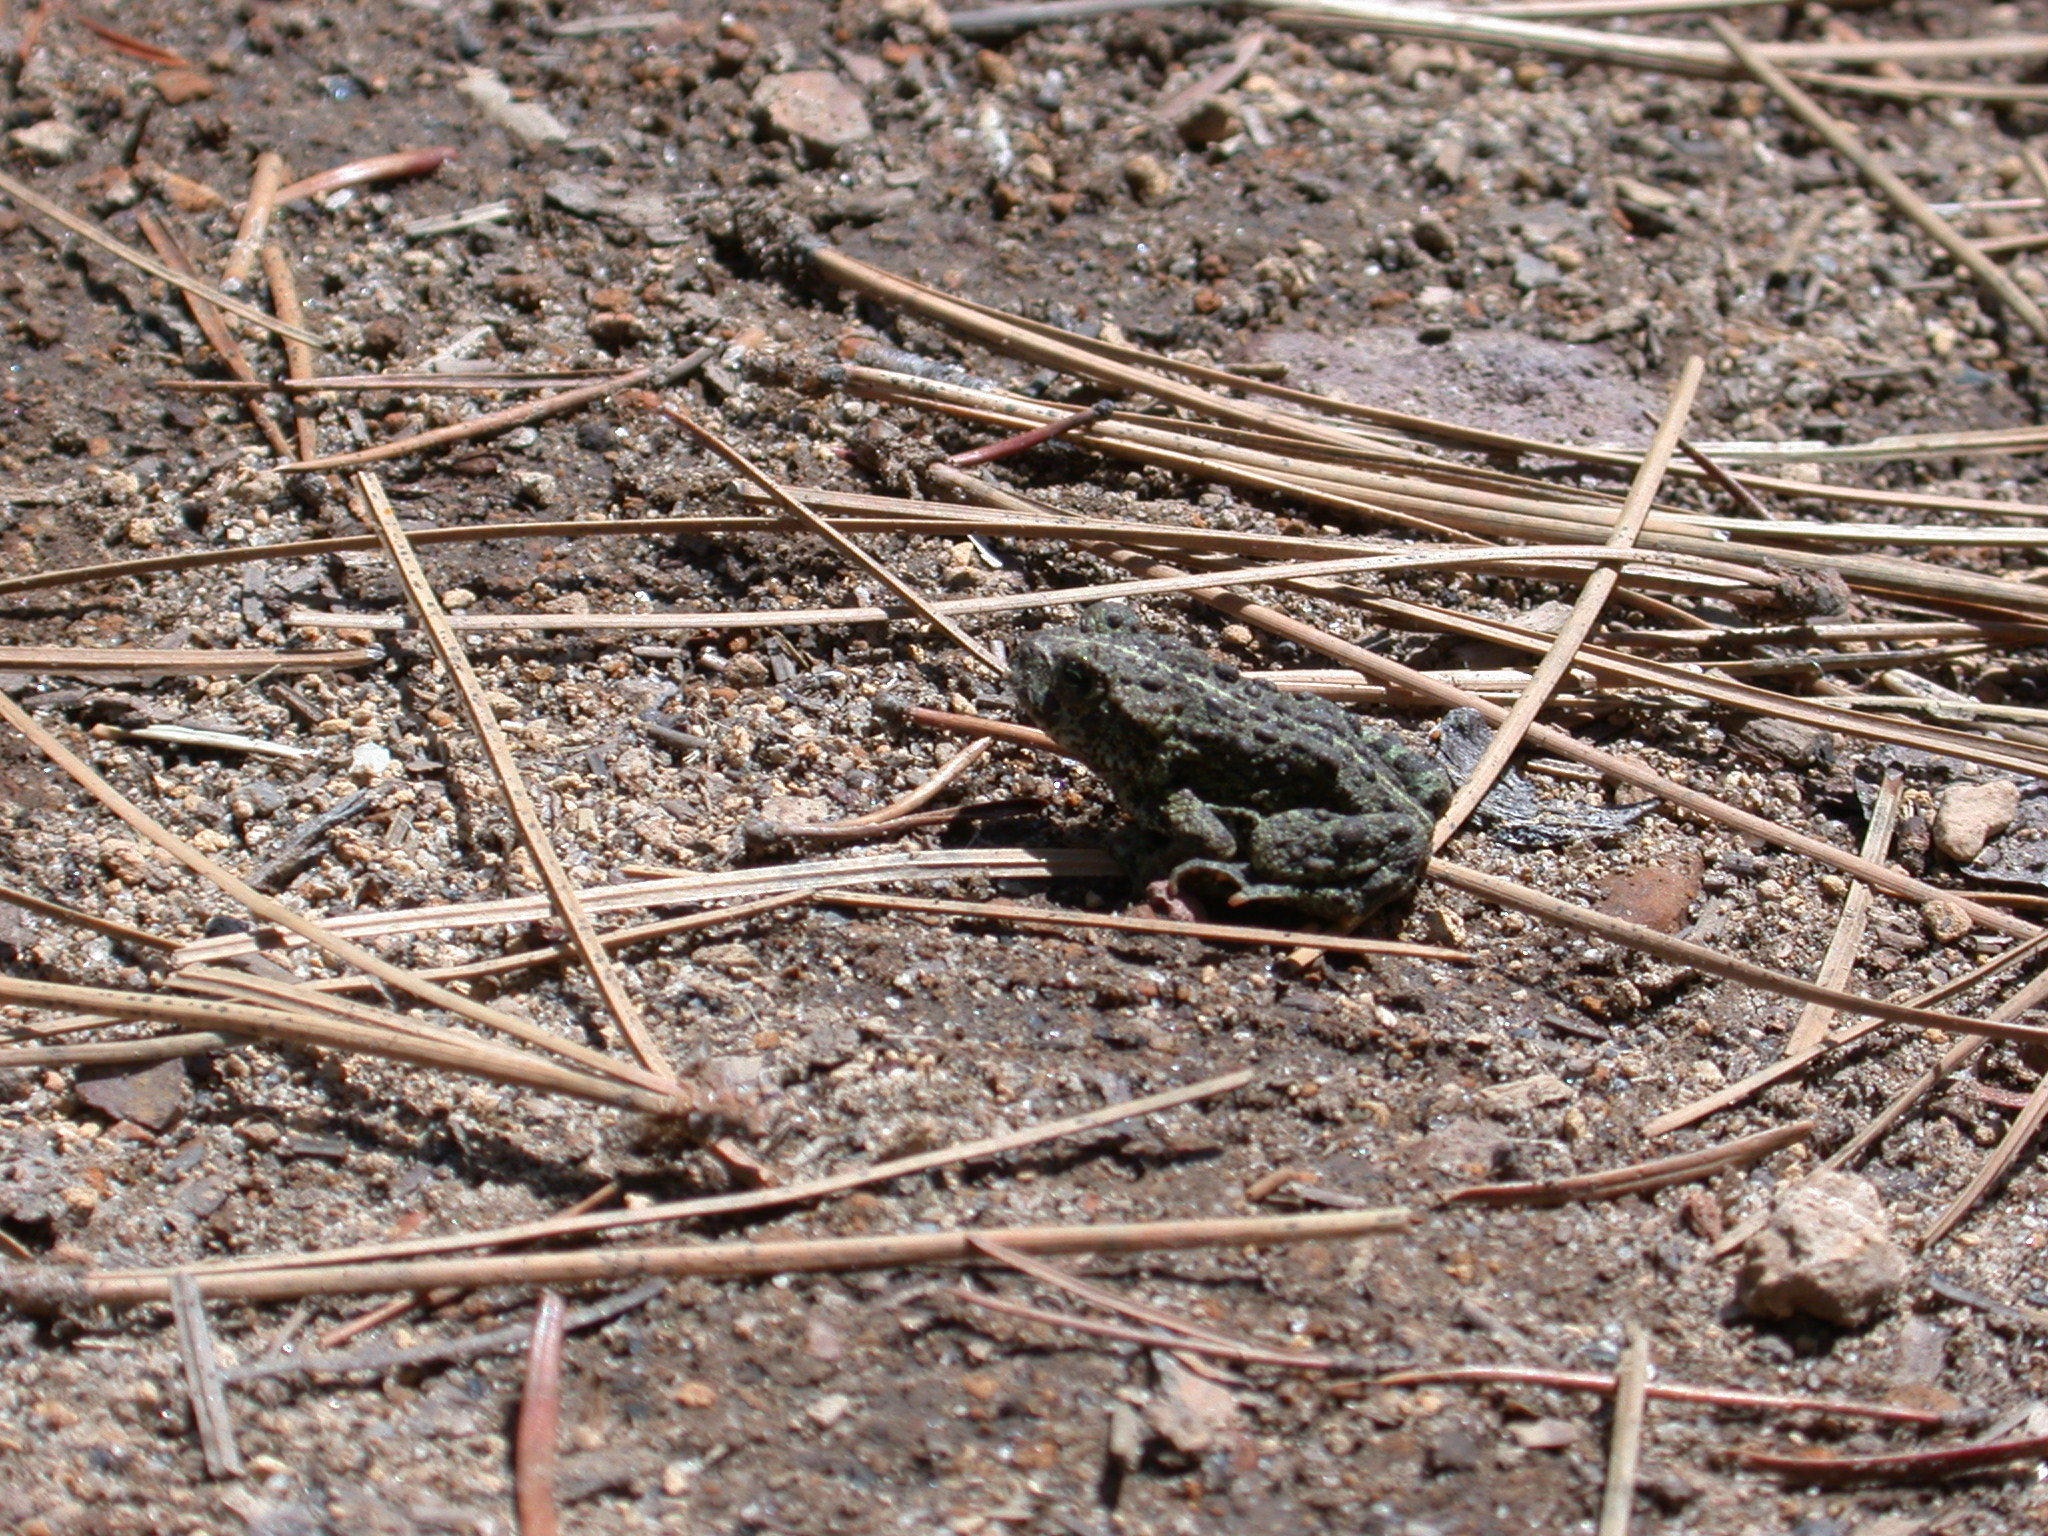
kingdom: Animalia
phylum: Chordata
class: Amphibia
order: Anura
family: Bufonidae
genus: Anaxyrus
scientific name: Anaxyrus boreas
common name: Western toad
